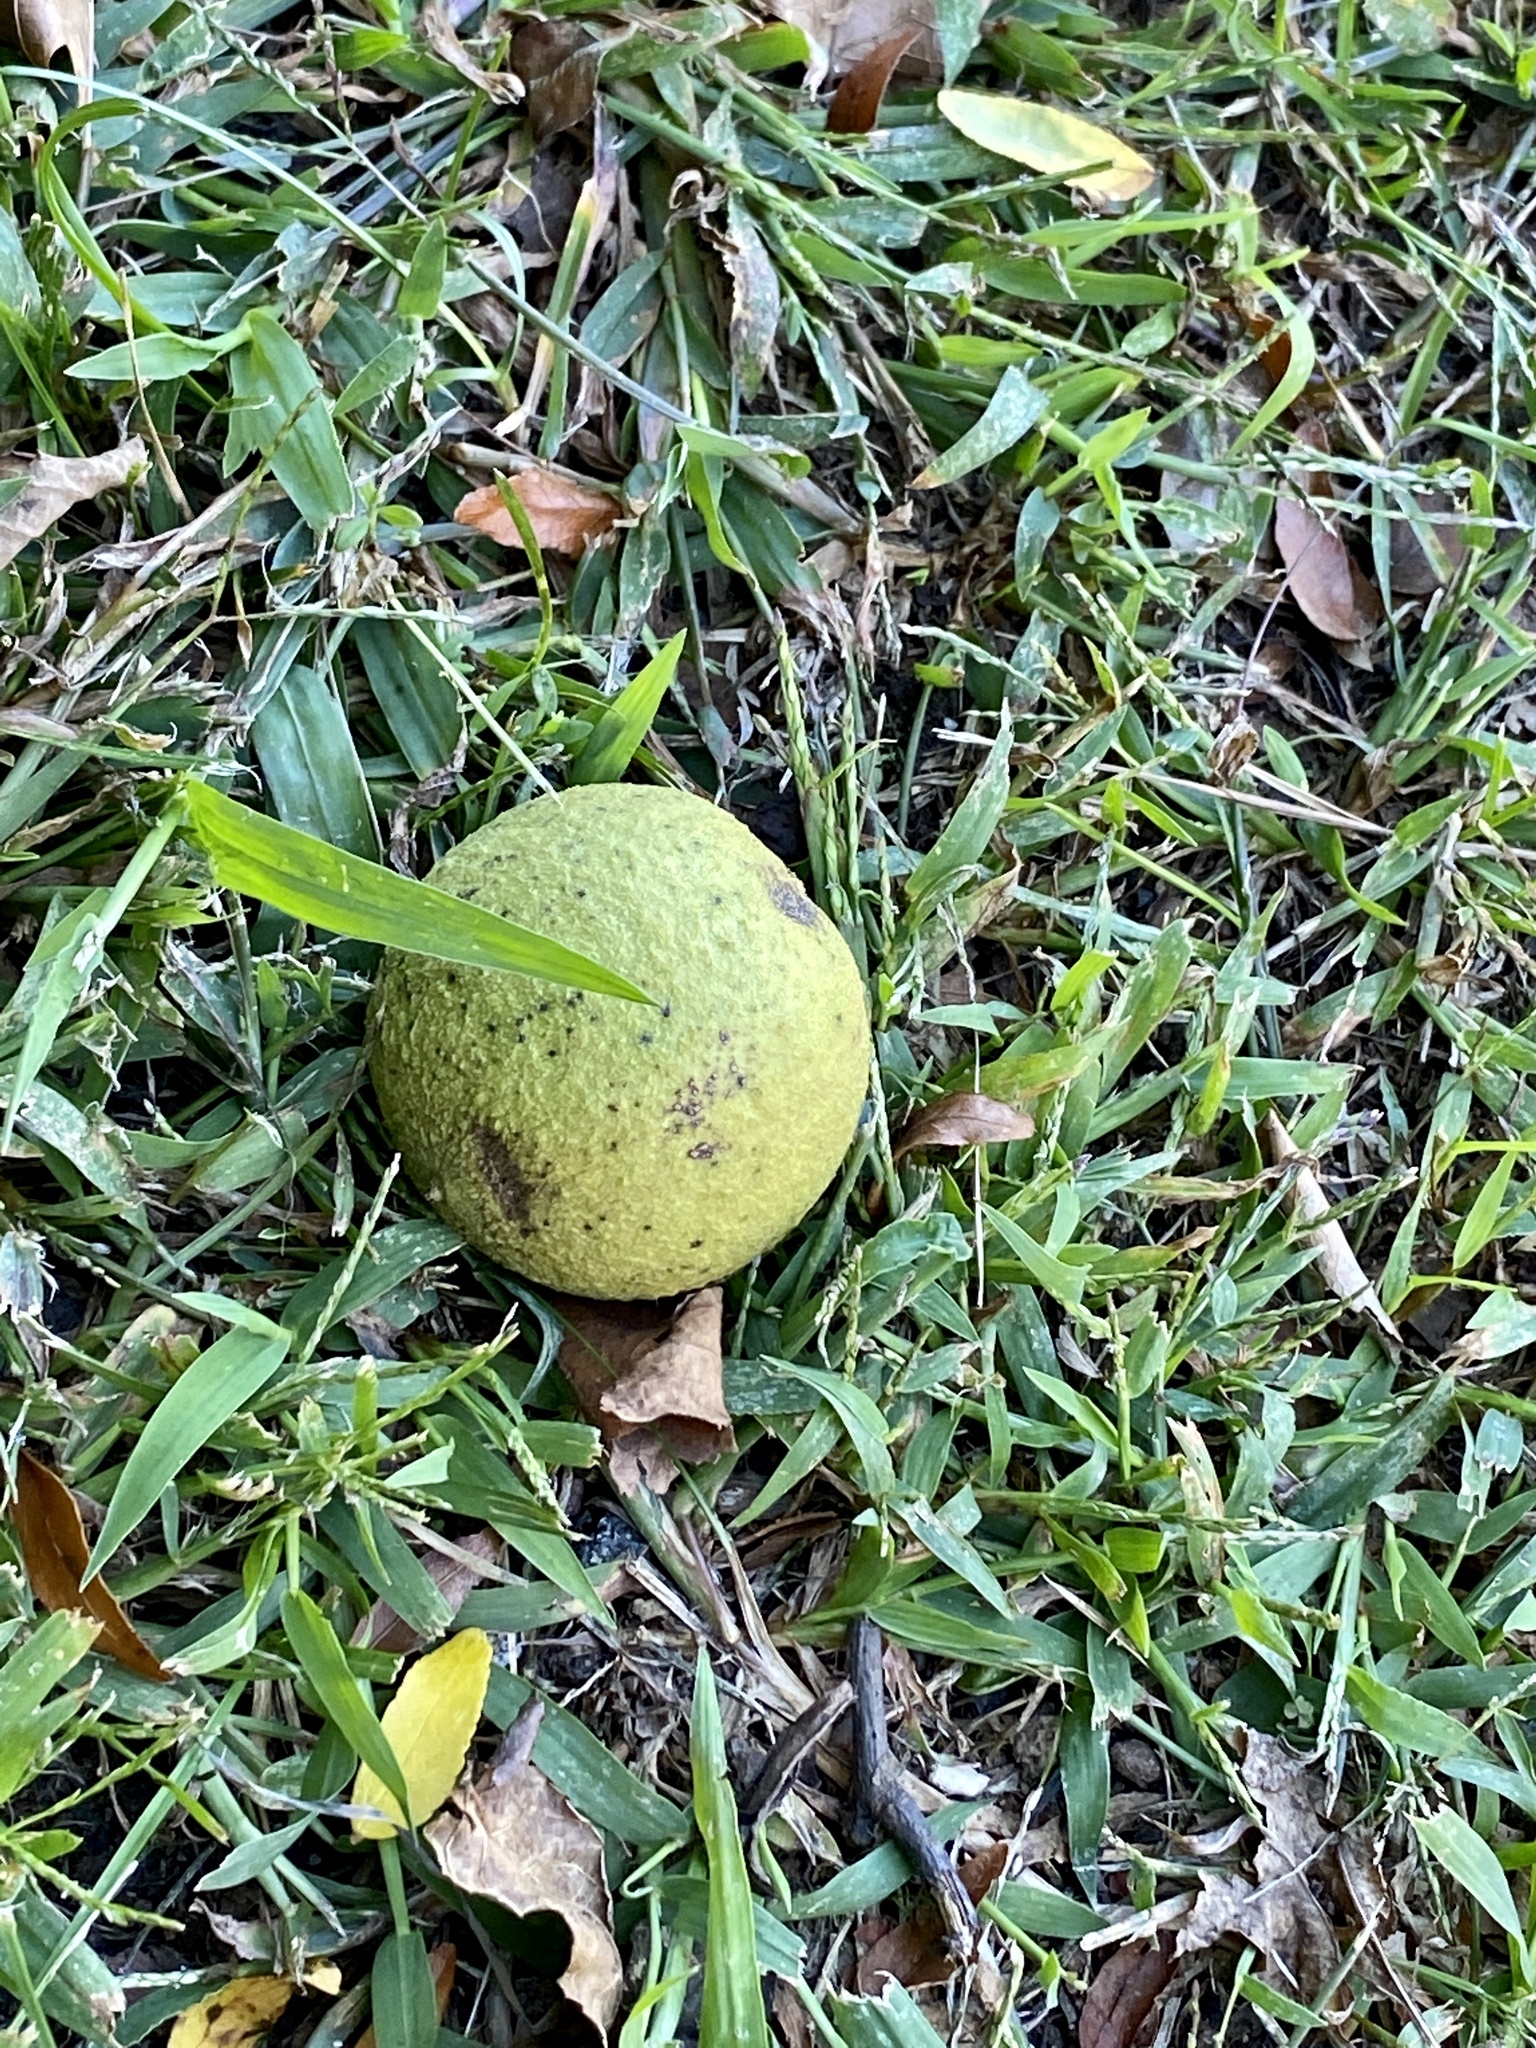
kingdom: Plantae
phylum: Tracheophyta
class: Magnoliopsida
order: Fagales
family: Juglandaceae
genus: Juglans
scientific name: Juglans nigra
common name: Black walnut
